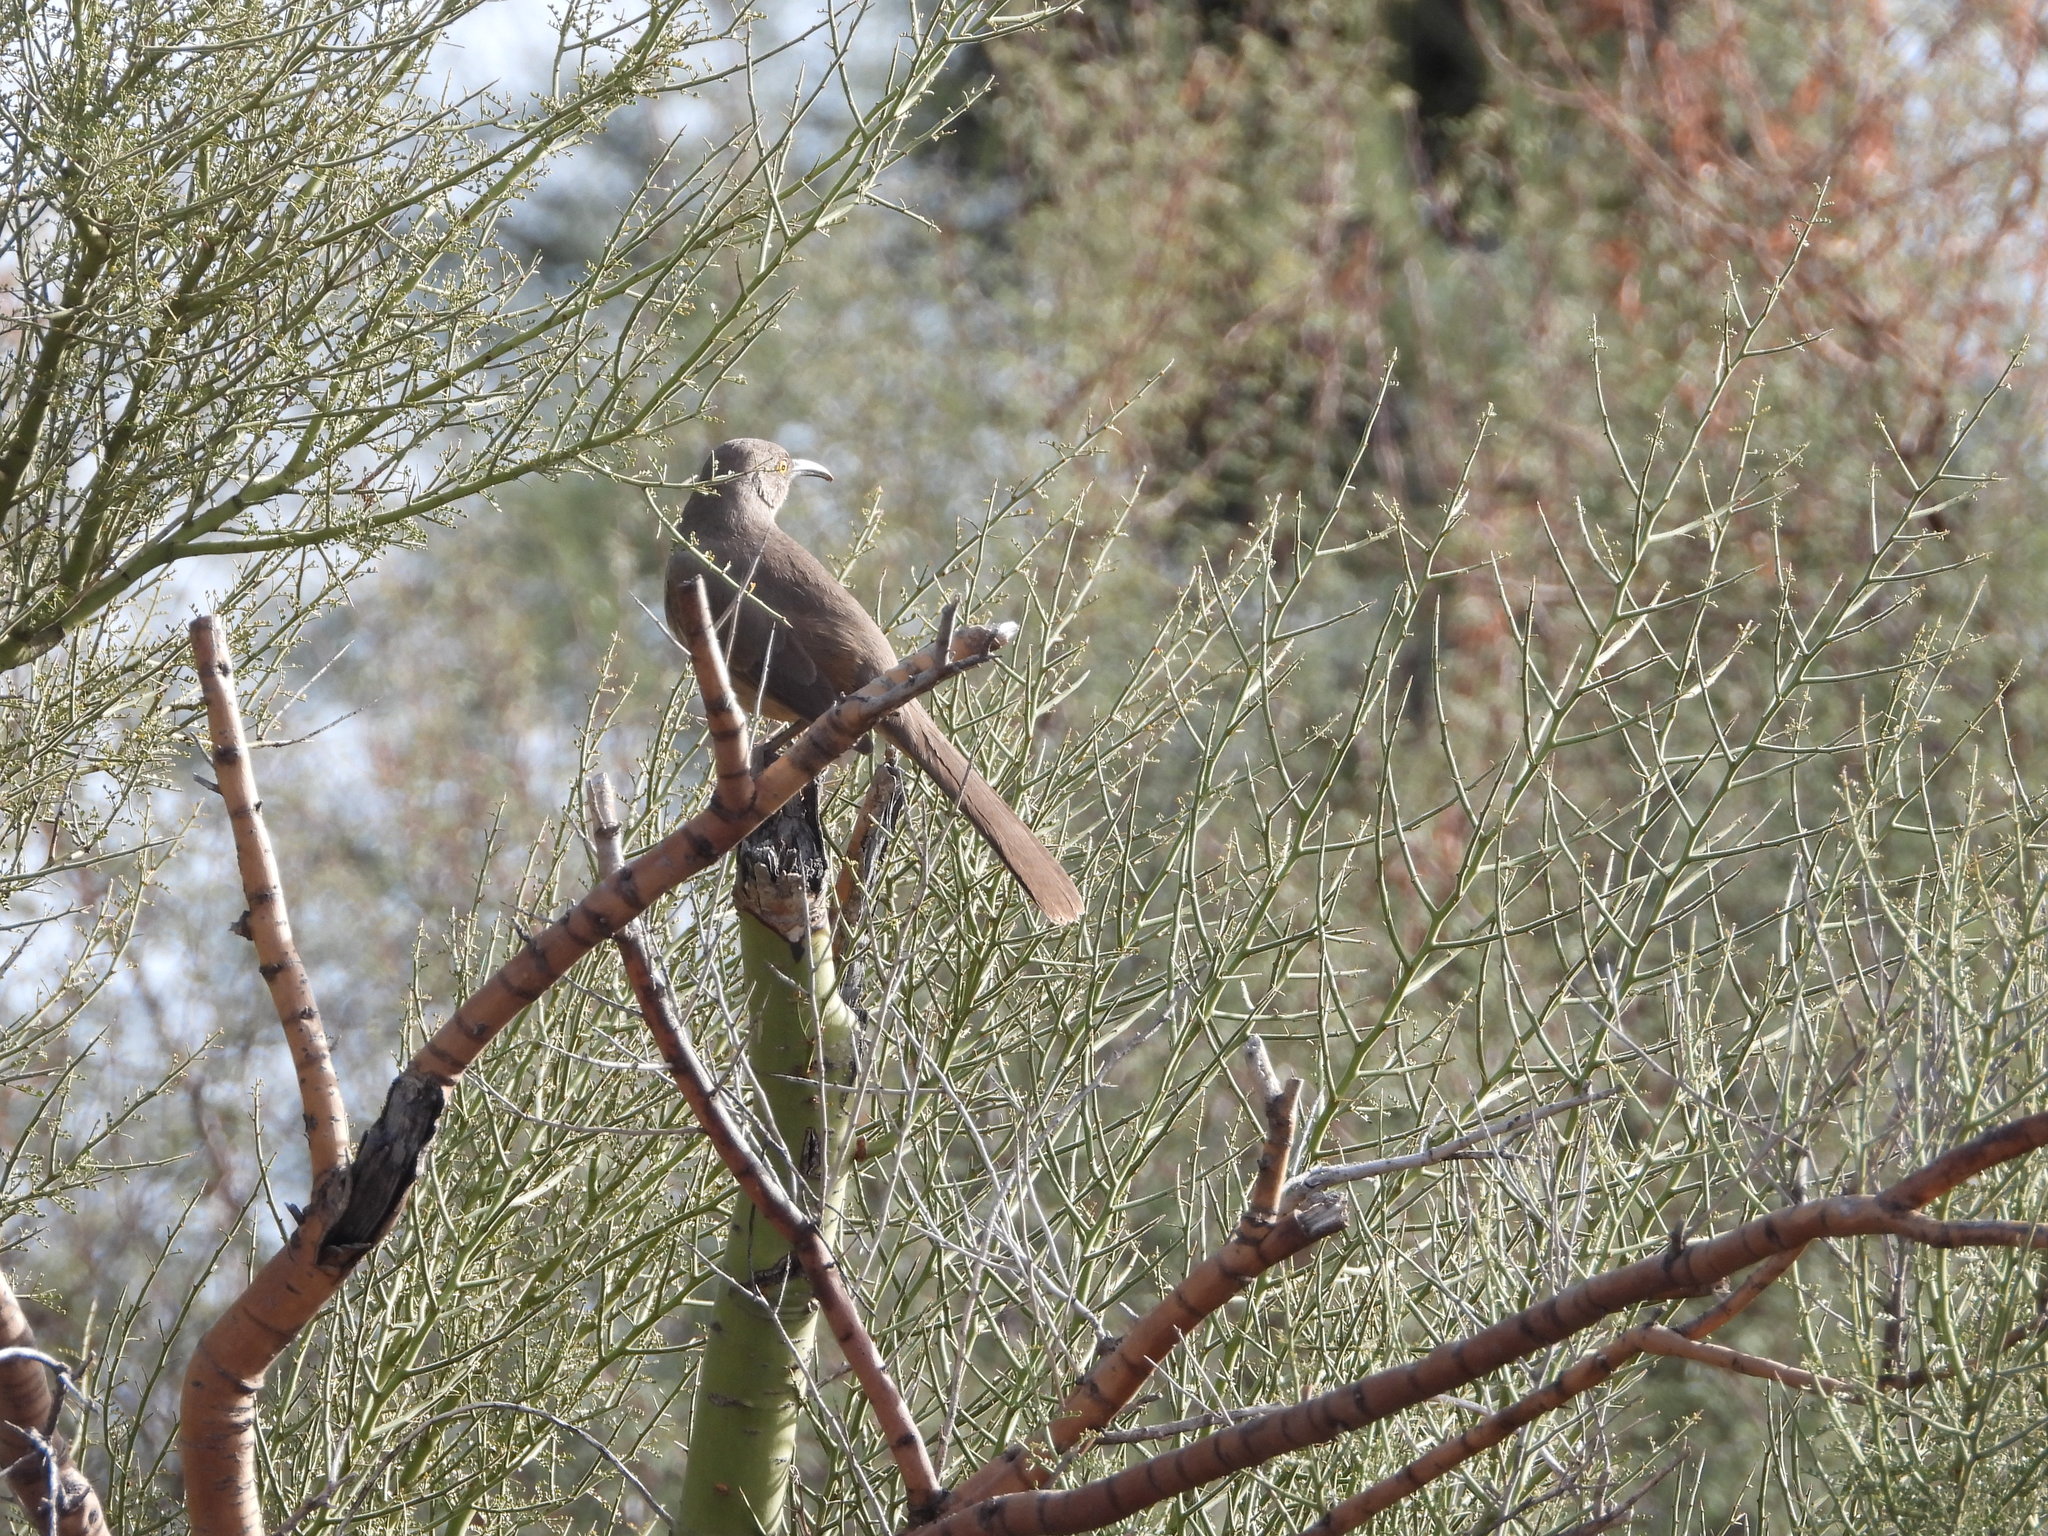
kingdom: Animalia
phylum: Chordata
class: Aves
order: Passeriformes
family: Mimidae
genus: Toxostoma
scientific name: Toxostoma curvirostre
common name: Curve-billed thrasher
